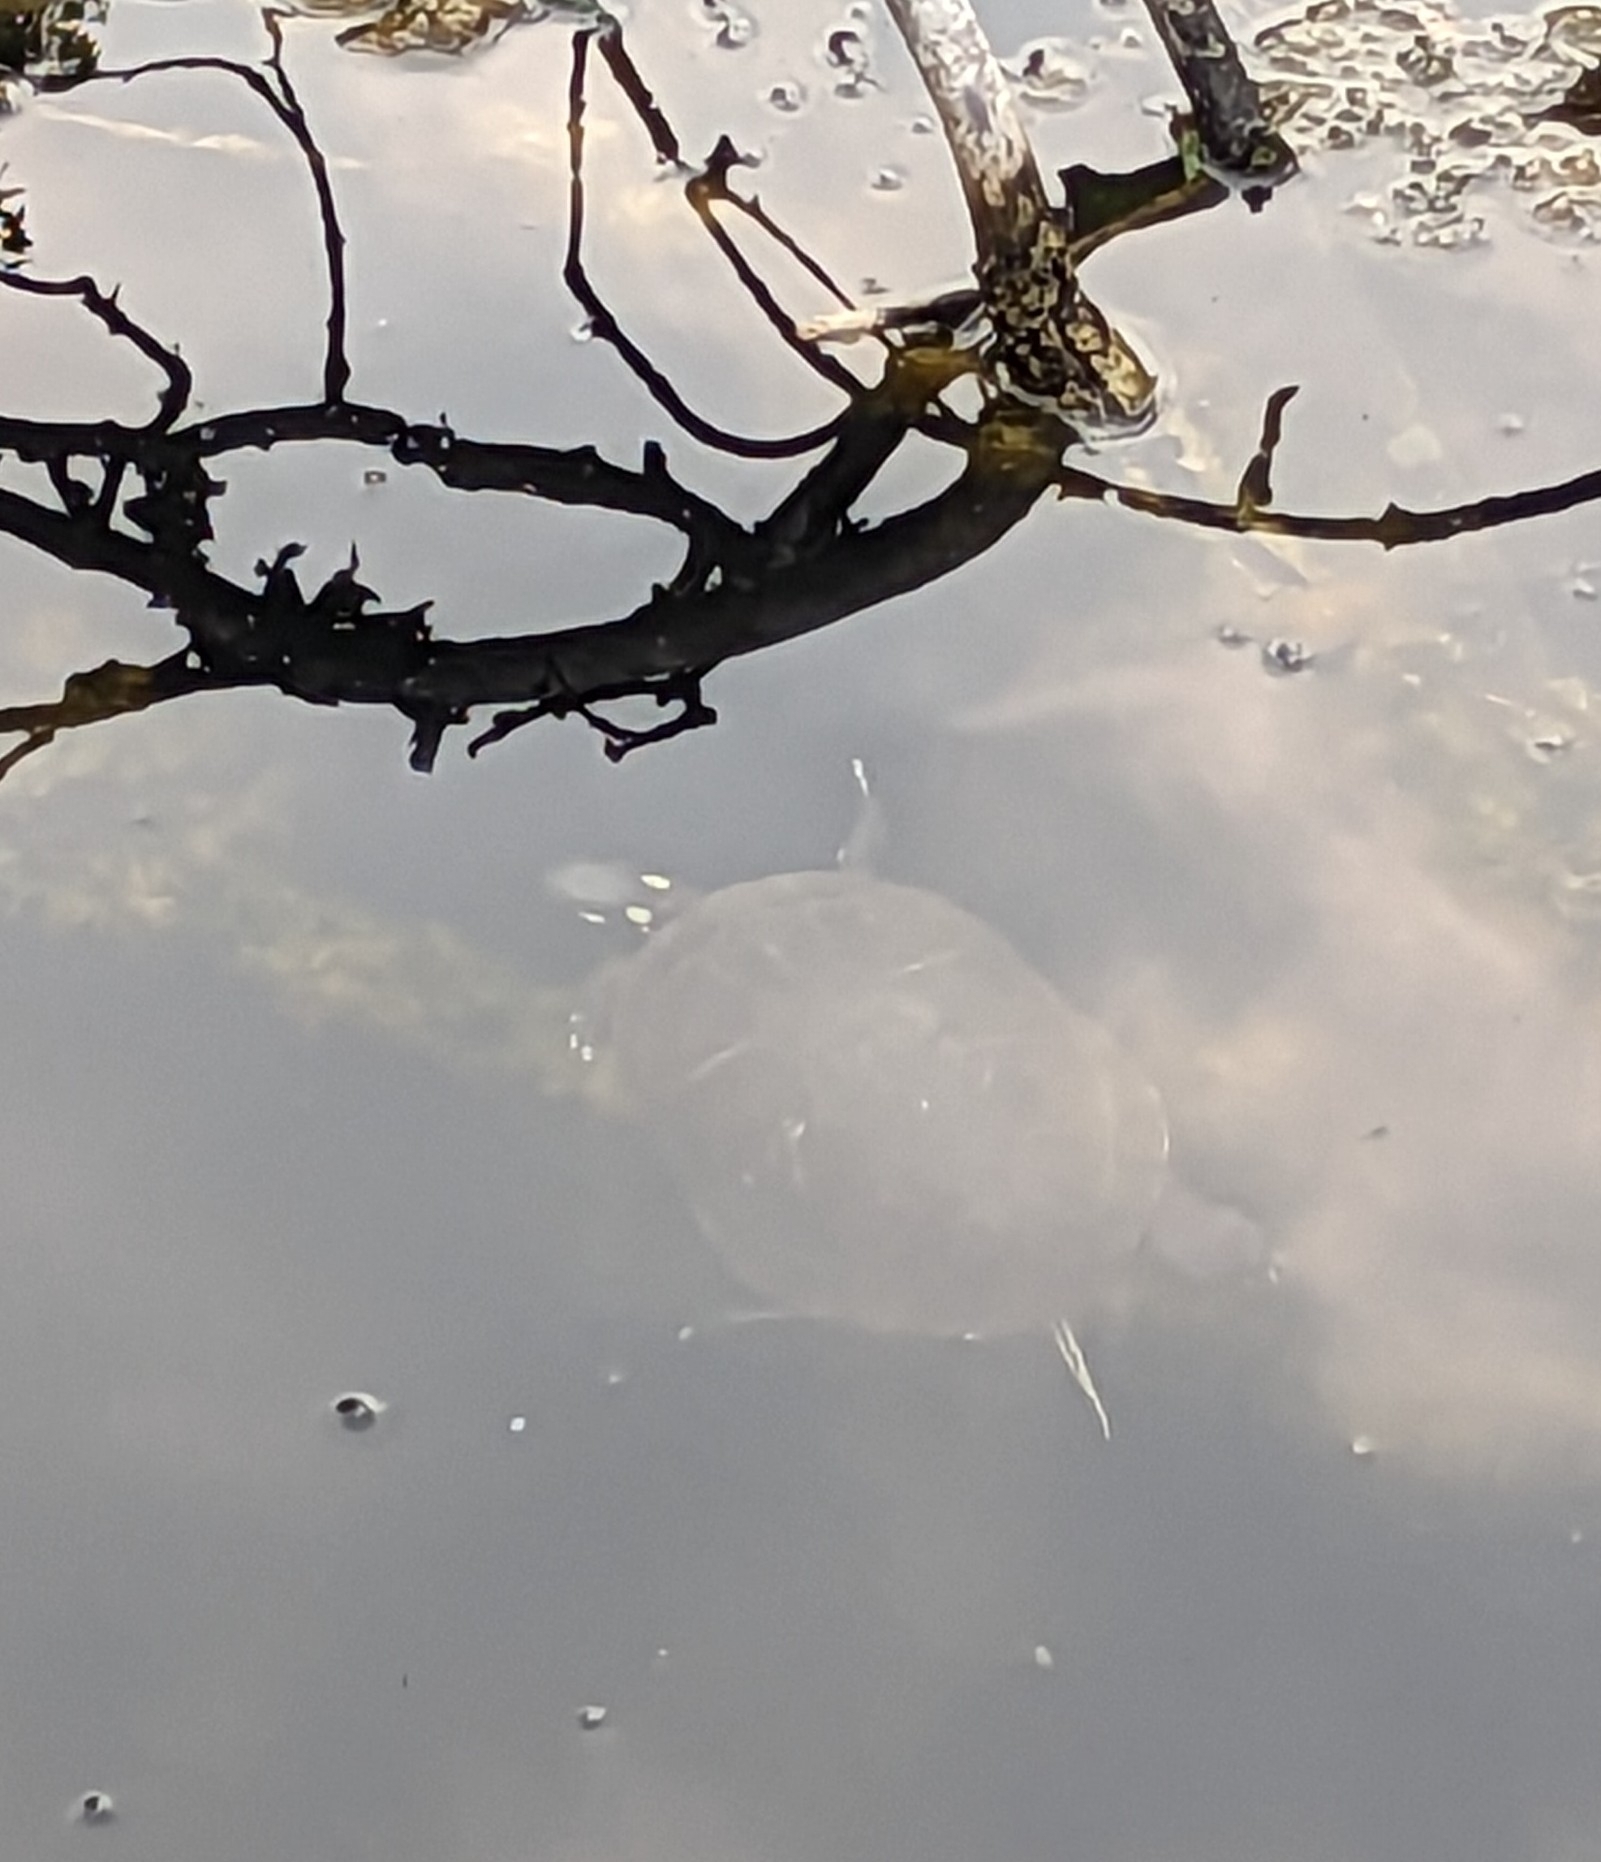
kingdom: Animalia
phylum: Chordata
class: Testudines
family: Emydidae
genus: Chrysemys
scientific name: Chrysemys picta
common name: Painted turtle
